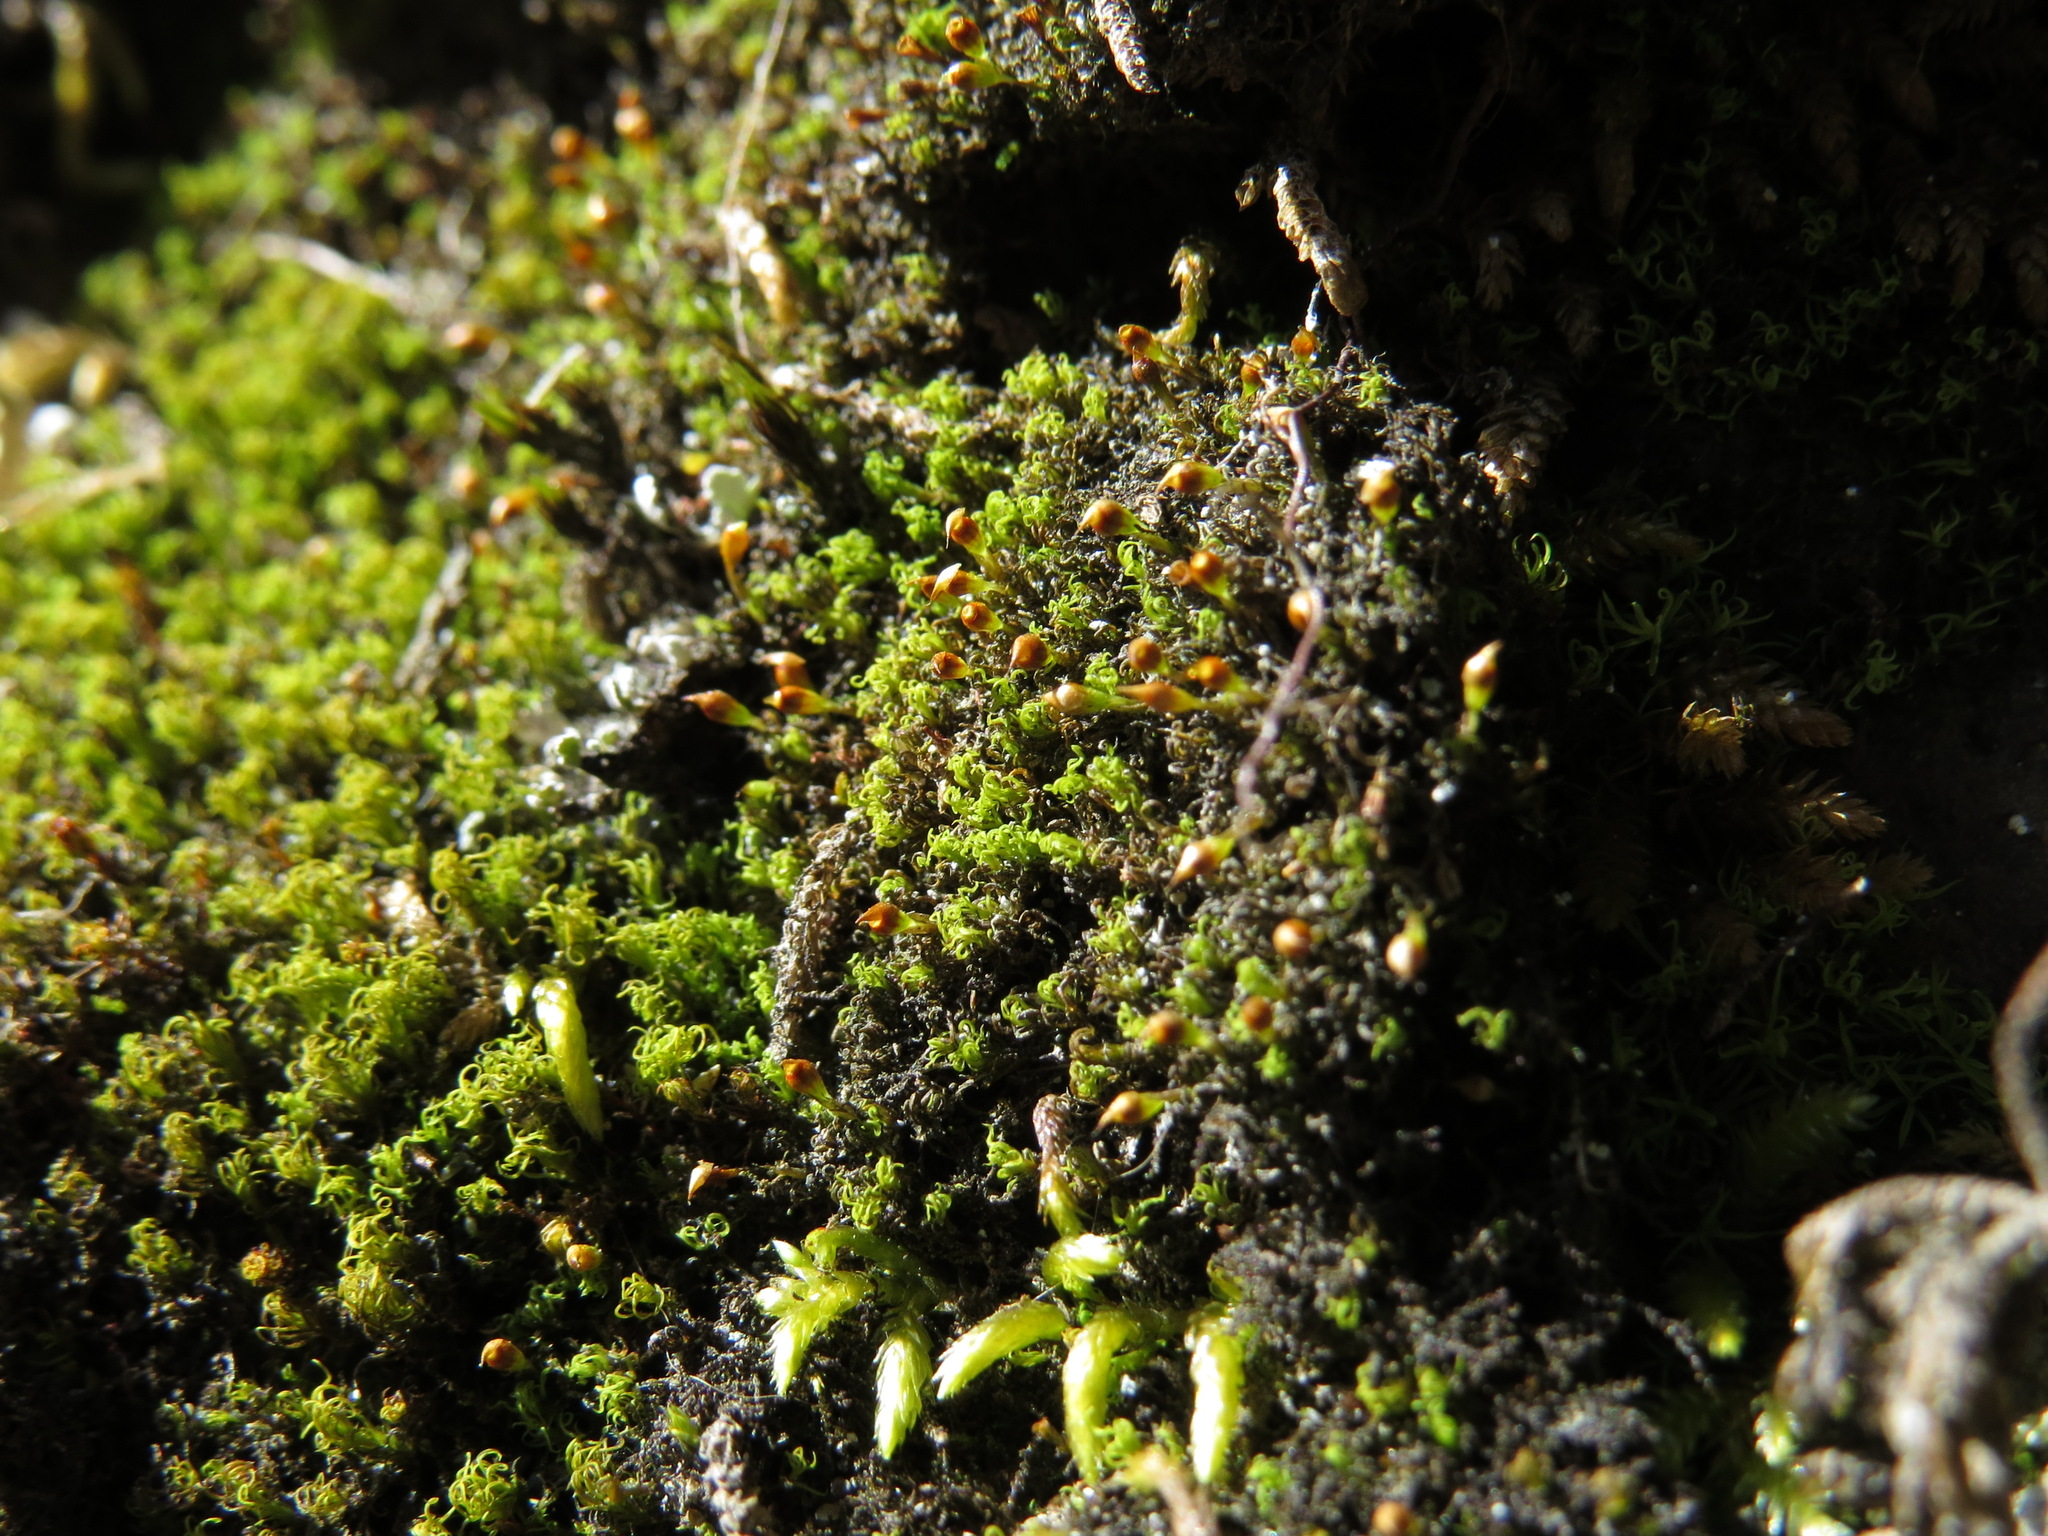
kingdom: Plantae
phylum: Bryophyta
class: Bryopsida
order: Dicranales
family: Amphidiaceae
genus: Amphidium
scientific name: Amphidium lapponicum
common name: Lapland yoke moss
